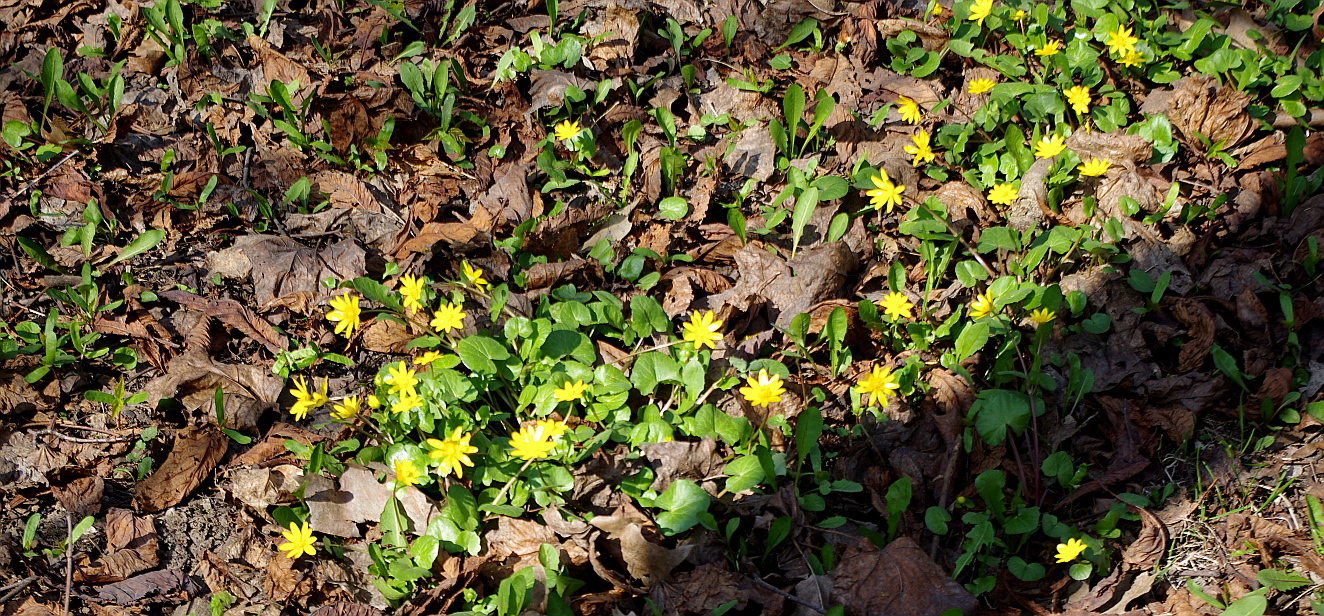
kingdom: Plantae
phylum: Tracheophyta
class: Magnoliopsida
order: Ranunculales
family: Ranunculaceae
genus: Ficaria
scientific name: Ficaria verna
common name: Lesser celandine
